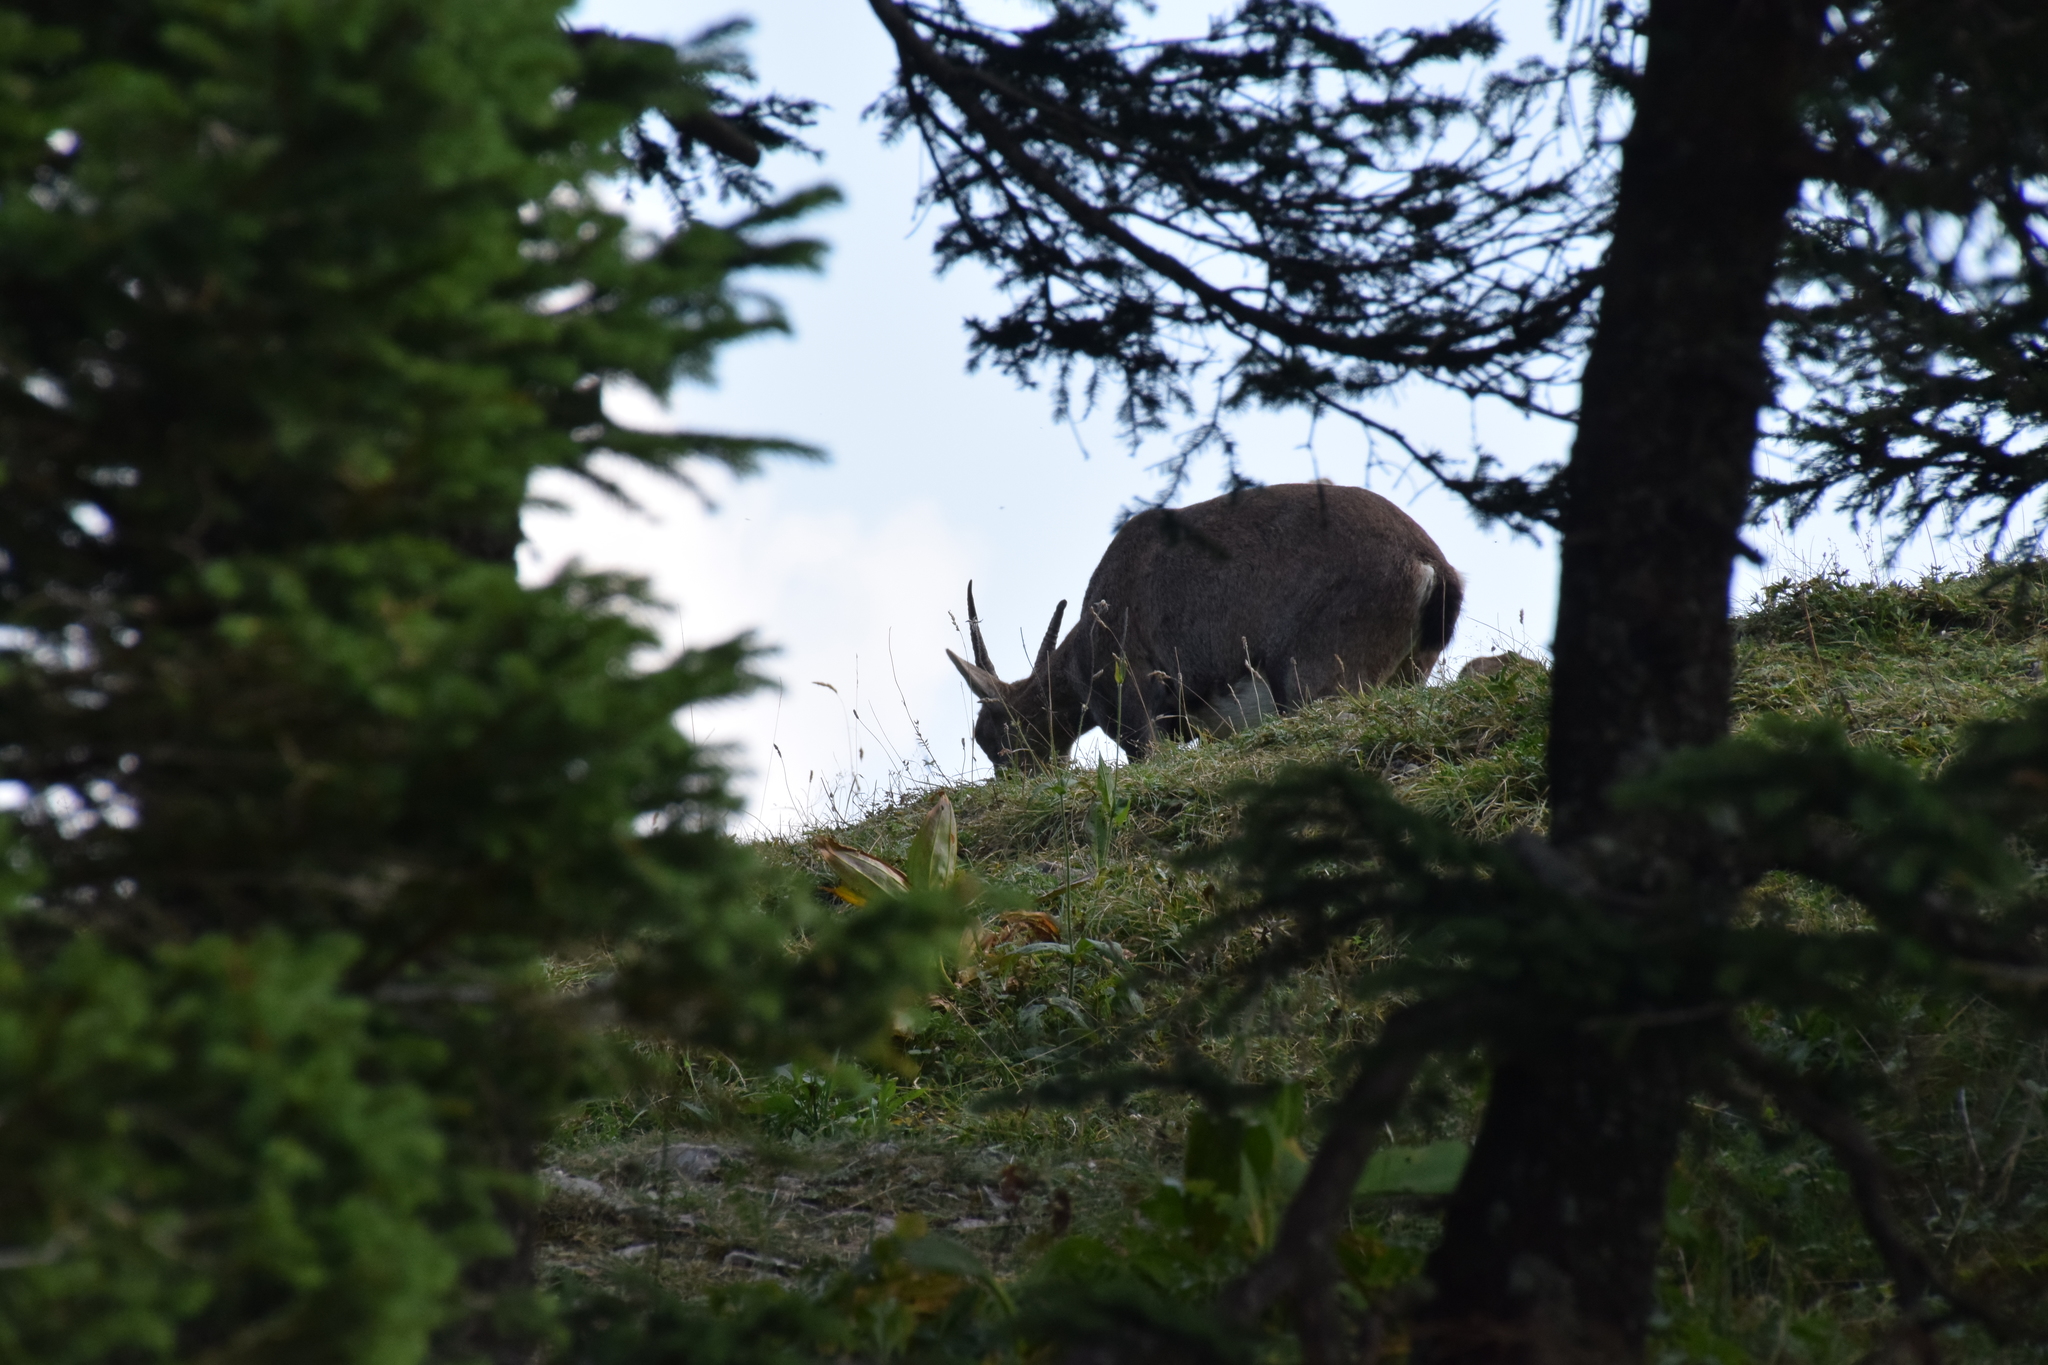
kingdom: Animalia
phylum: Chordata
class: Mammalia
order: Artiodactyla
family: Bovidae
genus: Capra
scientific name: Capra ibex
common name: Alpine ibex
